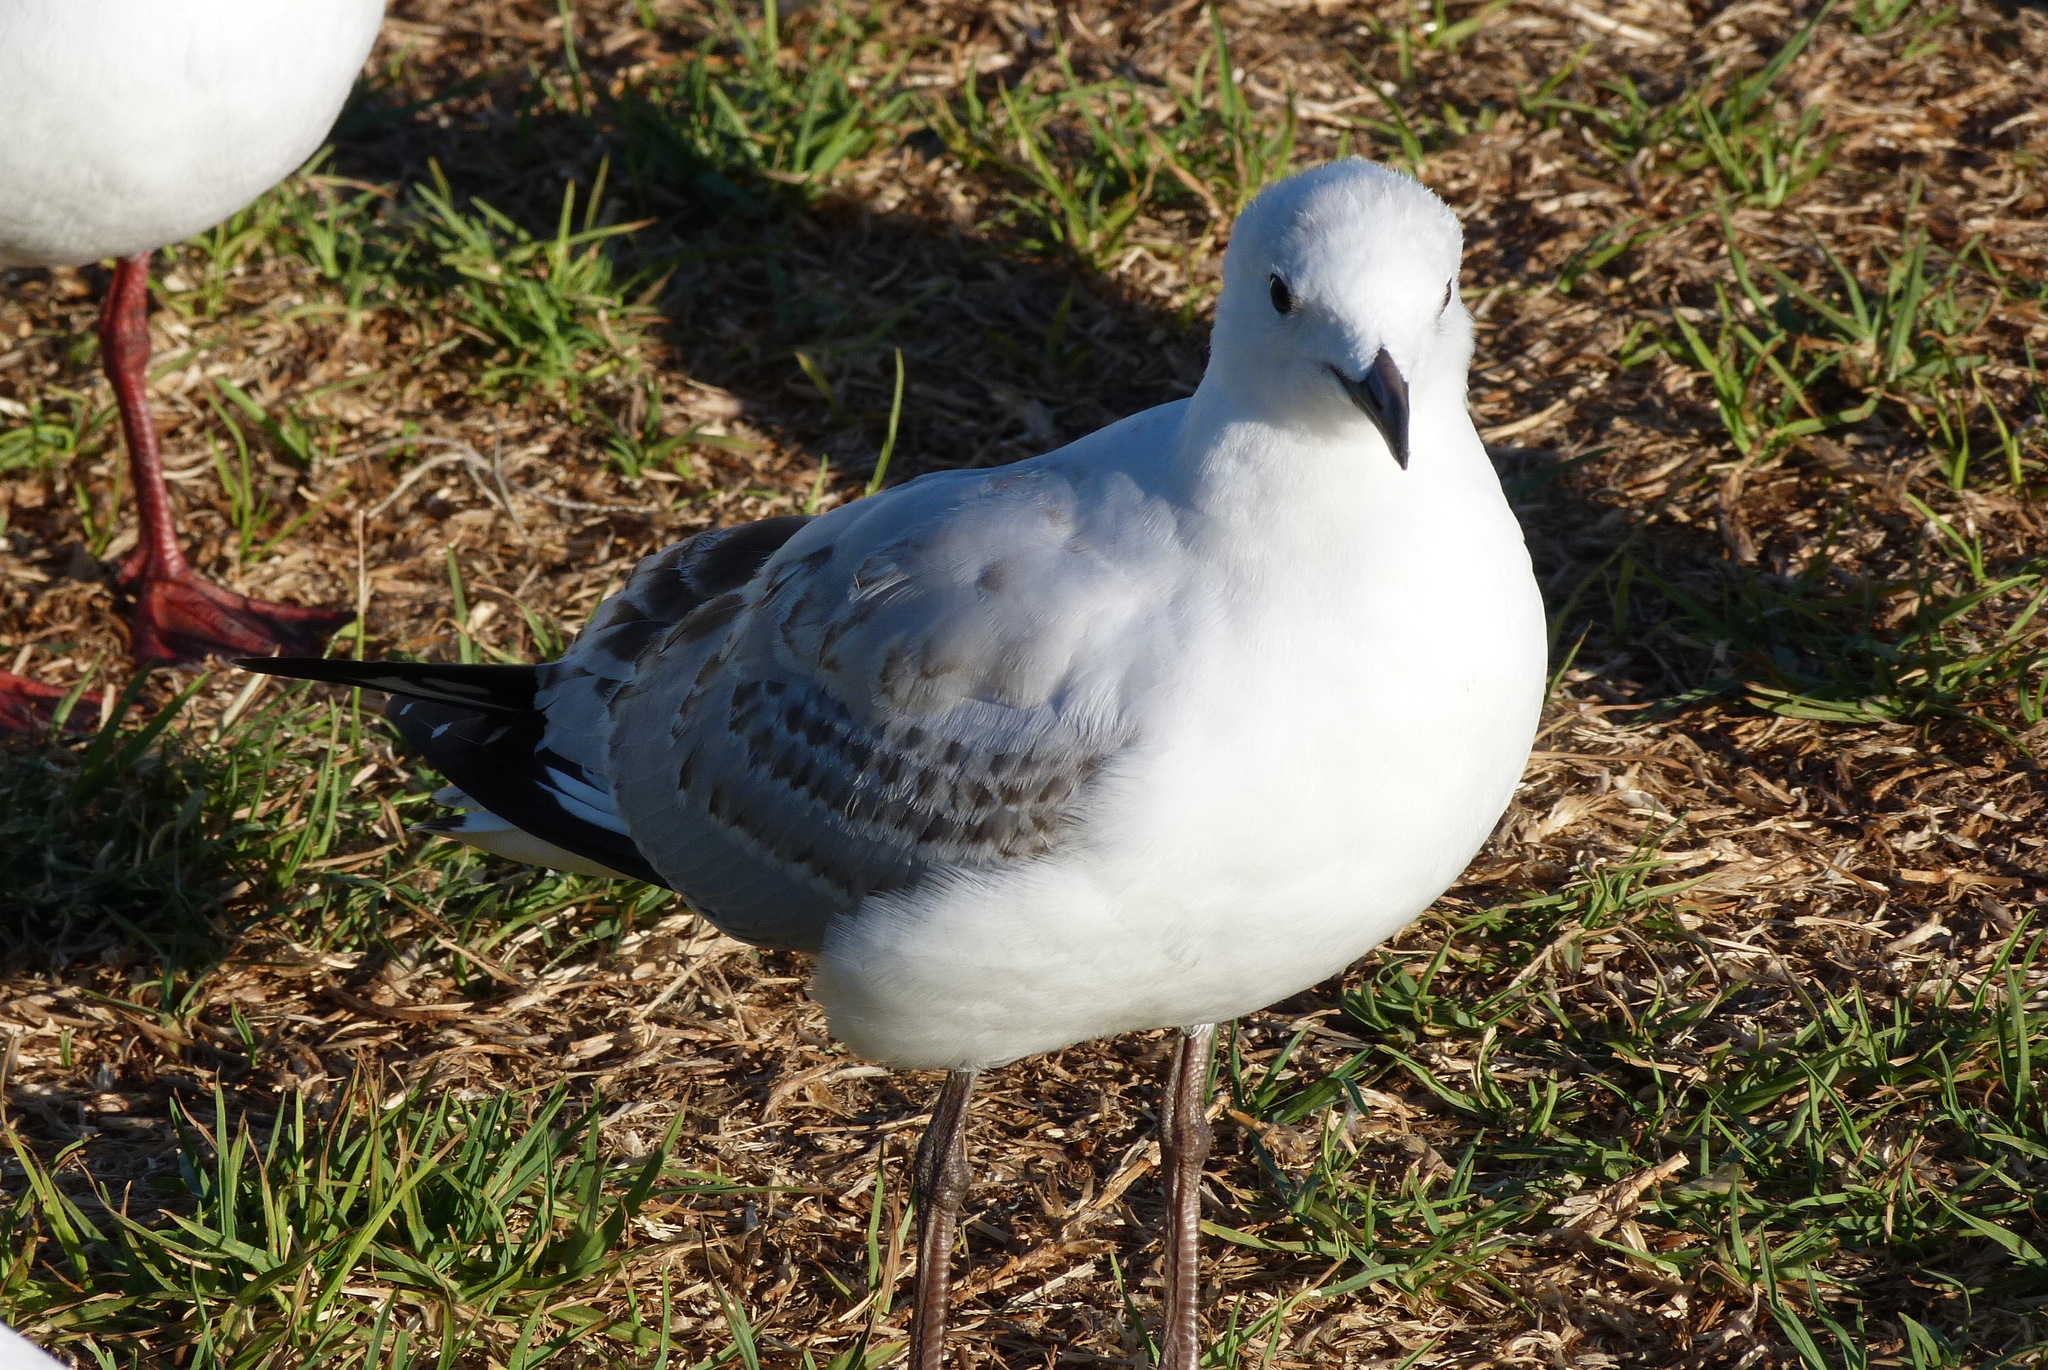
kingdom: Animalia
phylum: Chordata
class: Aves
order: Charadriiformes
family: Laridae
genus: Chroicocephalus
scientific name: Chroicocephalus novaehollandiae
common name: Silver gull
